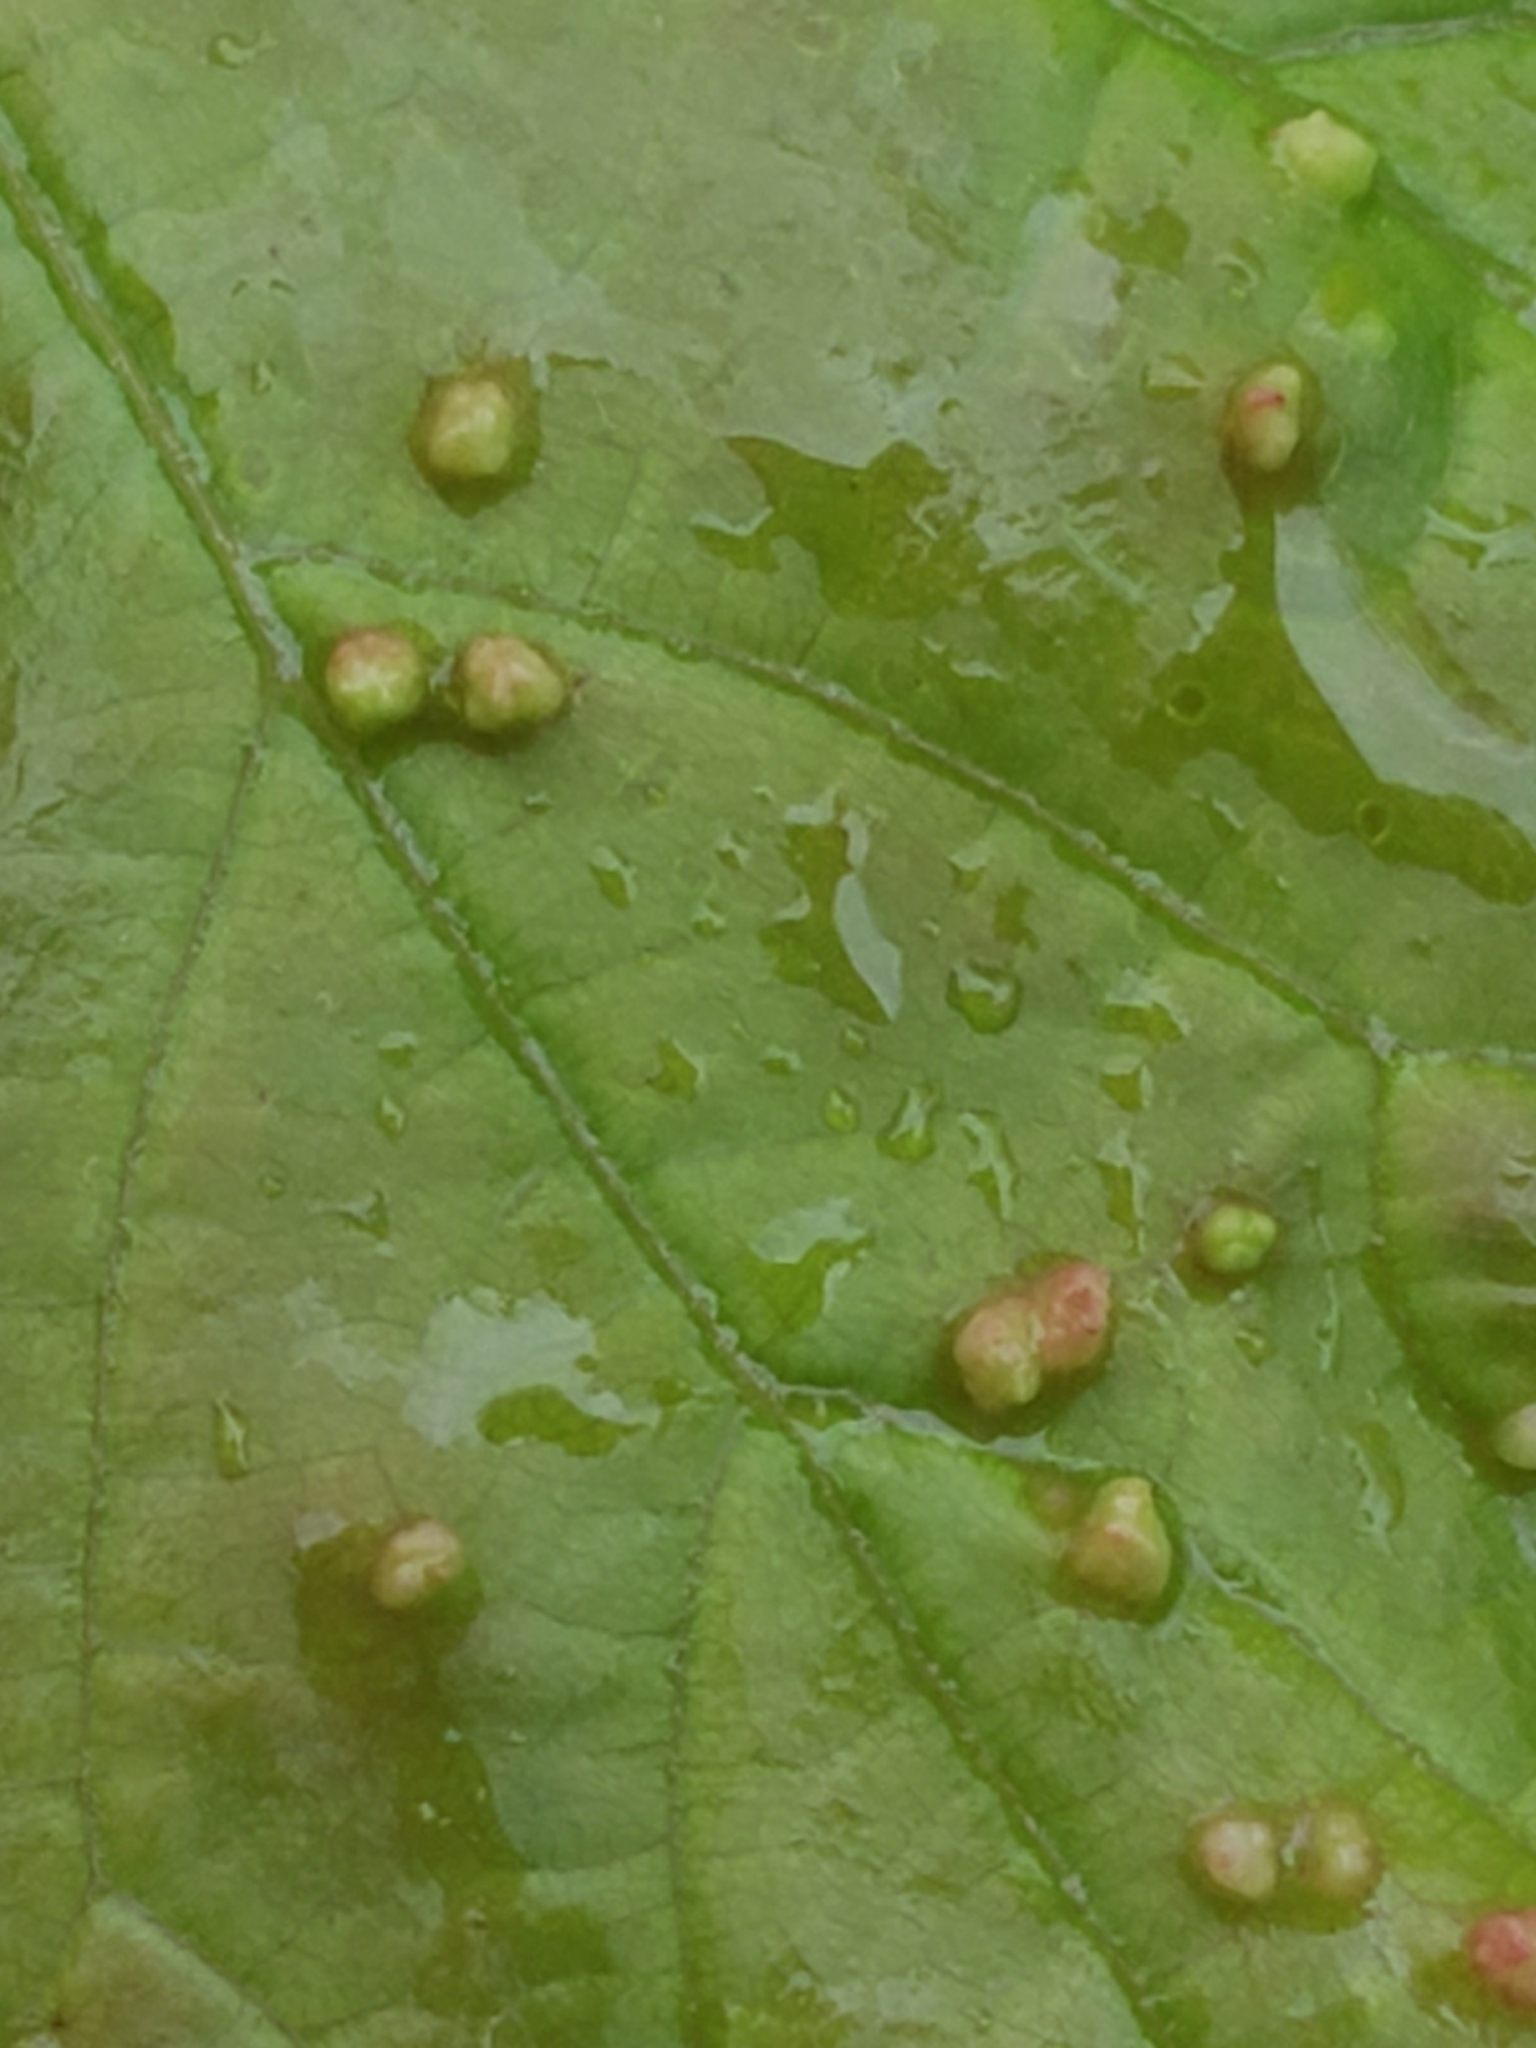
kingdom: Animalia
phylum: Arthropoda
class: Arachnida
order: Trombidiformes
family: Eriophyidae
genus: Vasates
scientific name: Vasates quadripedes
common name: Maple bladder gall mite
